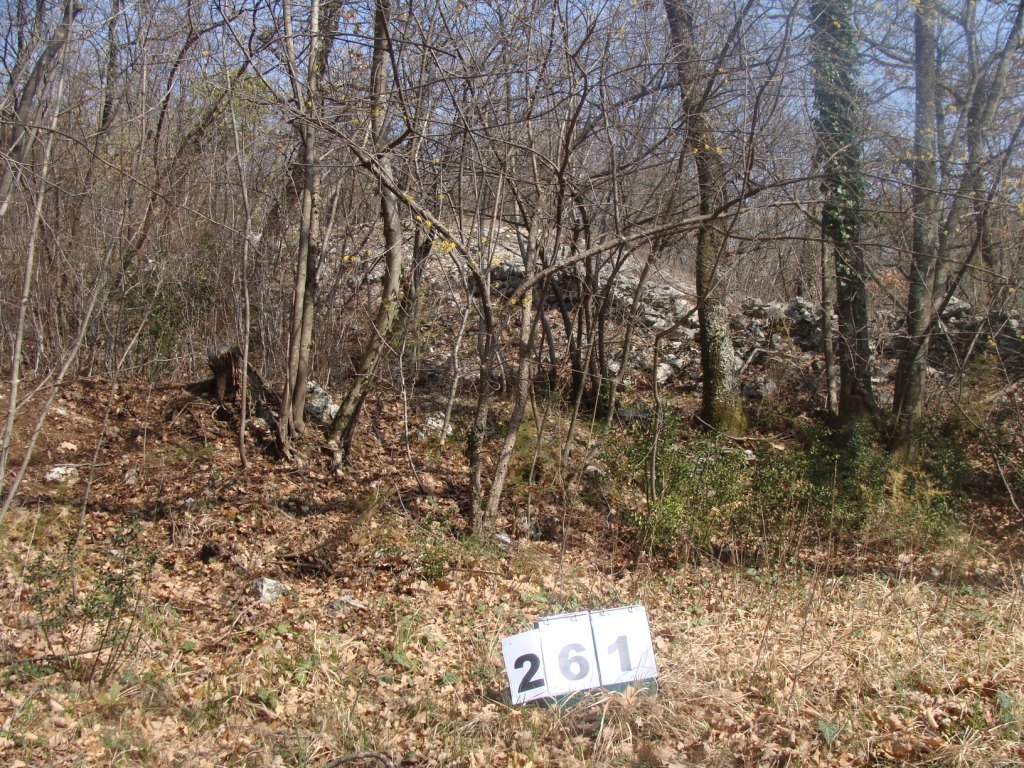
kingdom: Plantae
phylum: Tracheophyta
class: Magnoliopsida
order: Cornales
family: Cornaceae
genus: Cornus
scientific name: Cornus mas
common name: Cornelian-cherry
